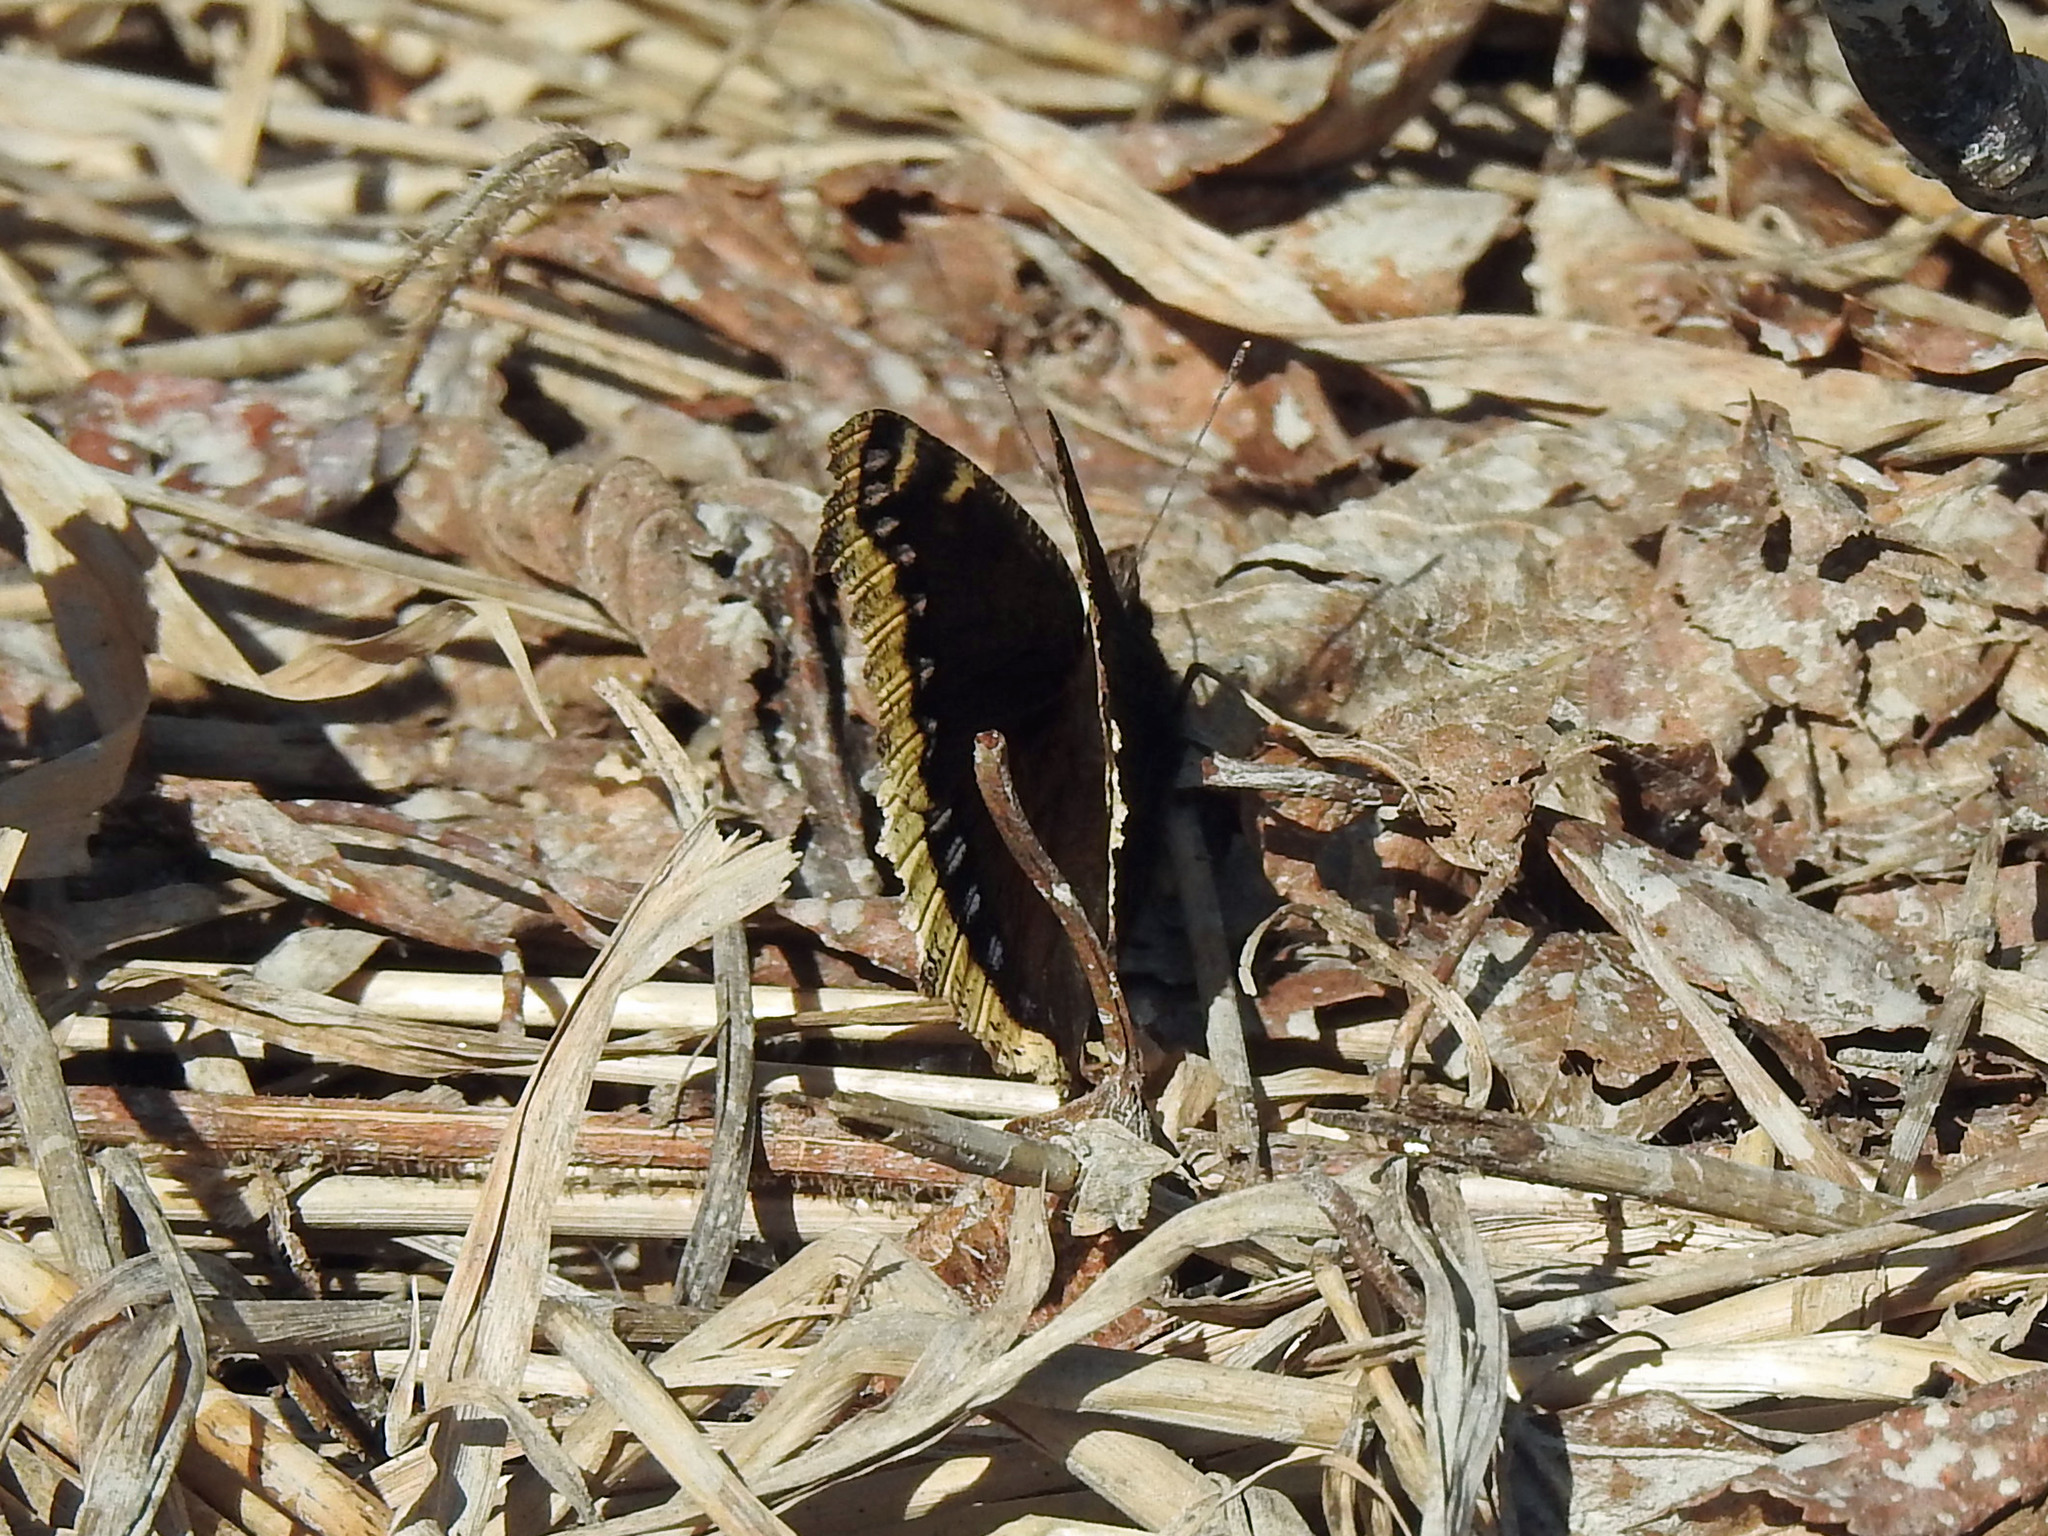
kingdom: Animalia
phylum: Arthropoda
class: Insecta
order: Lepidoptera
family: Nymphalidae
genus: Nymphalis
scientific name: Nymphalis antiopa
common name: Camberwell beauty
